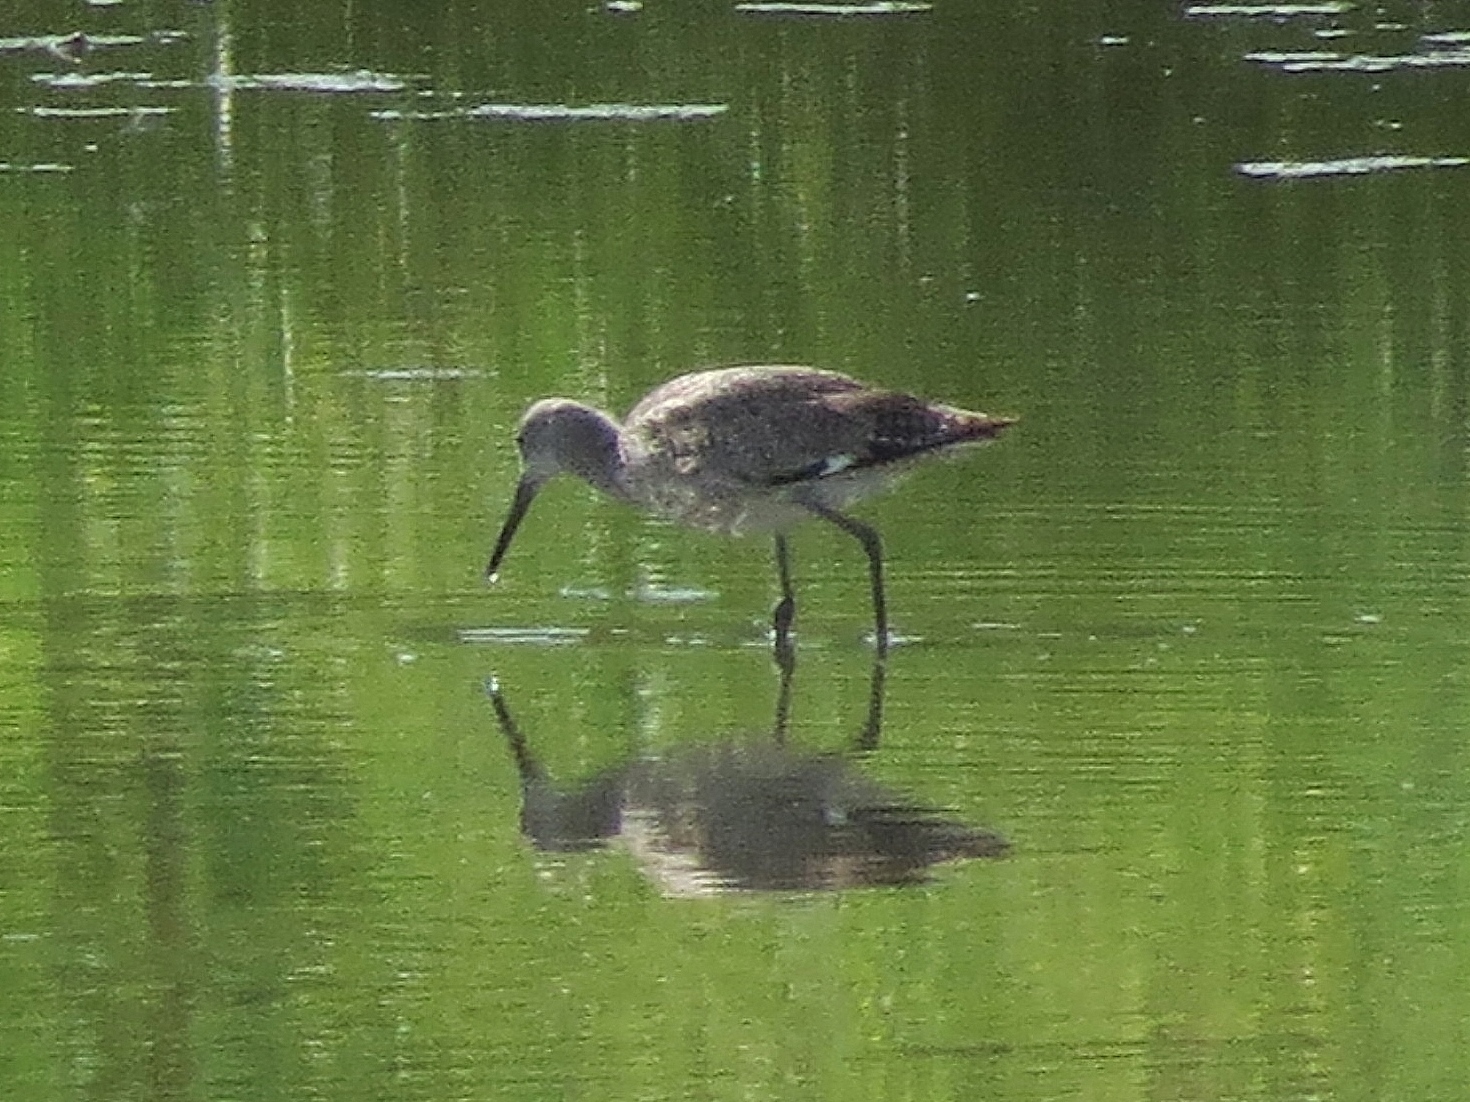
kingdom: Animalia
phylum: Chordata
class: Aves
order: Charadriiformes
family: Scolopacidae
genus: Tringa
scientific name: Tringa semipalmata
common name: Willet
